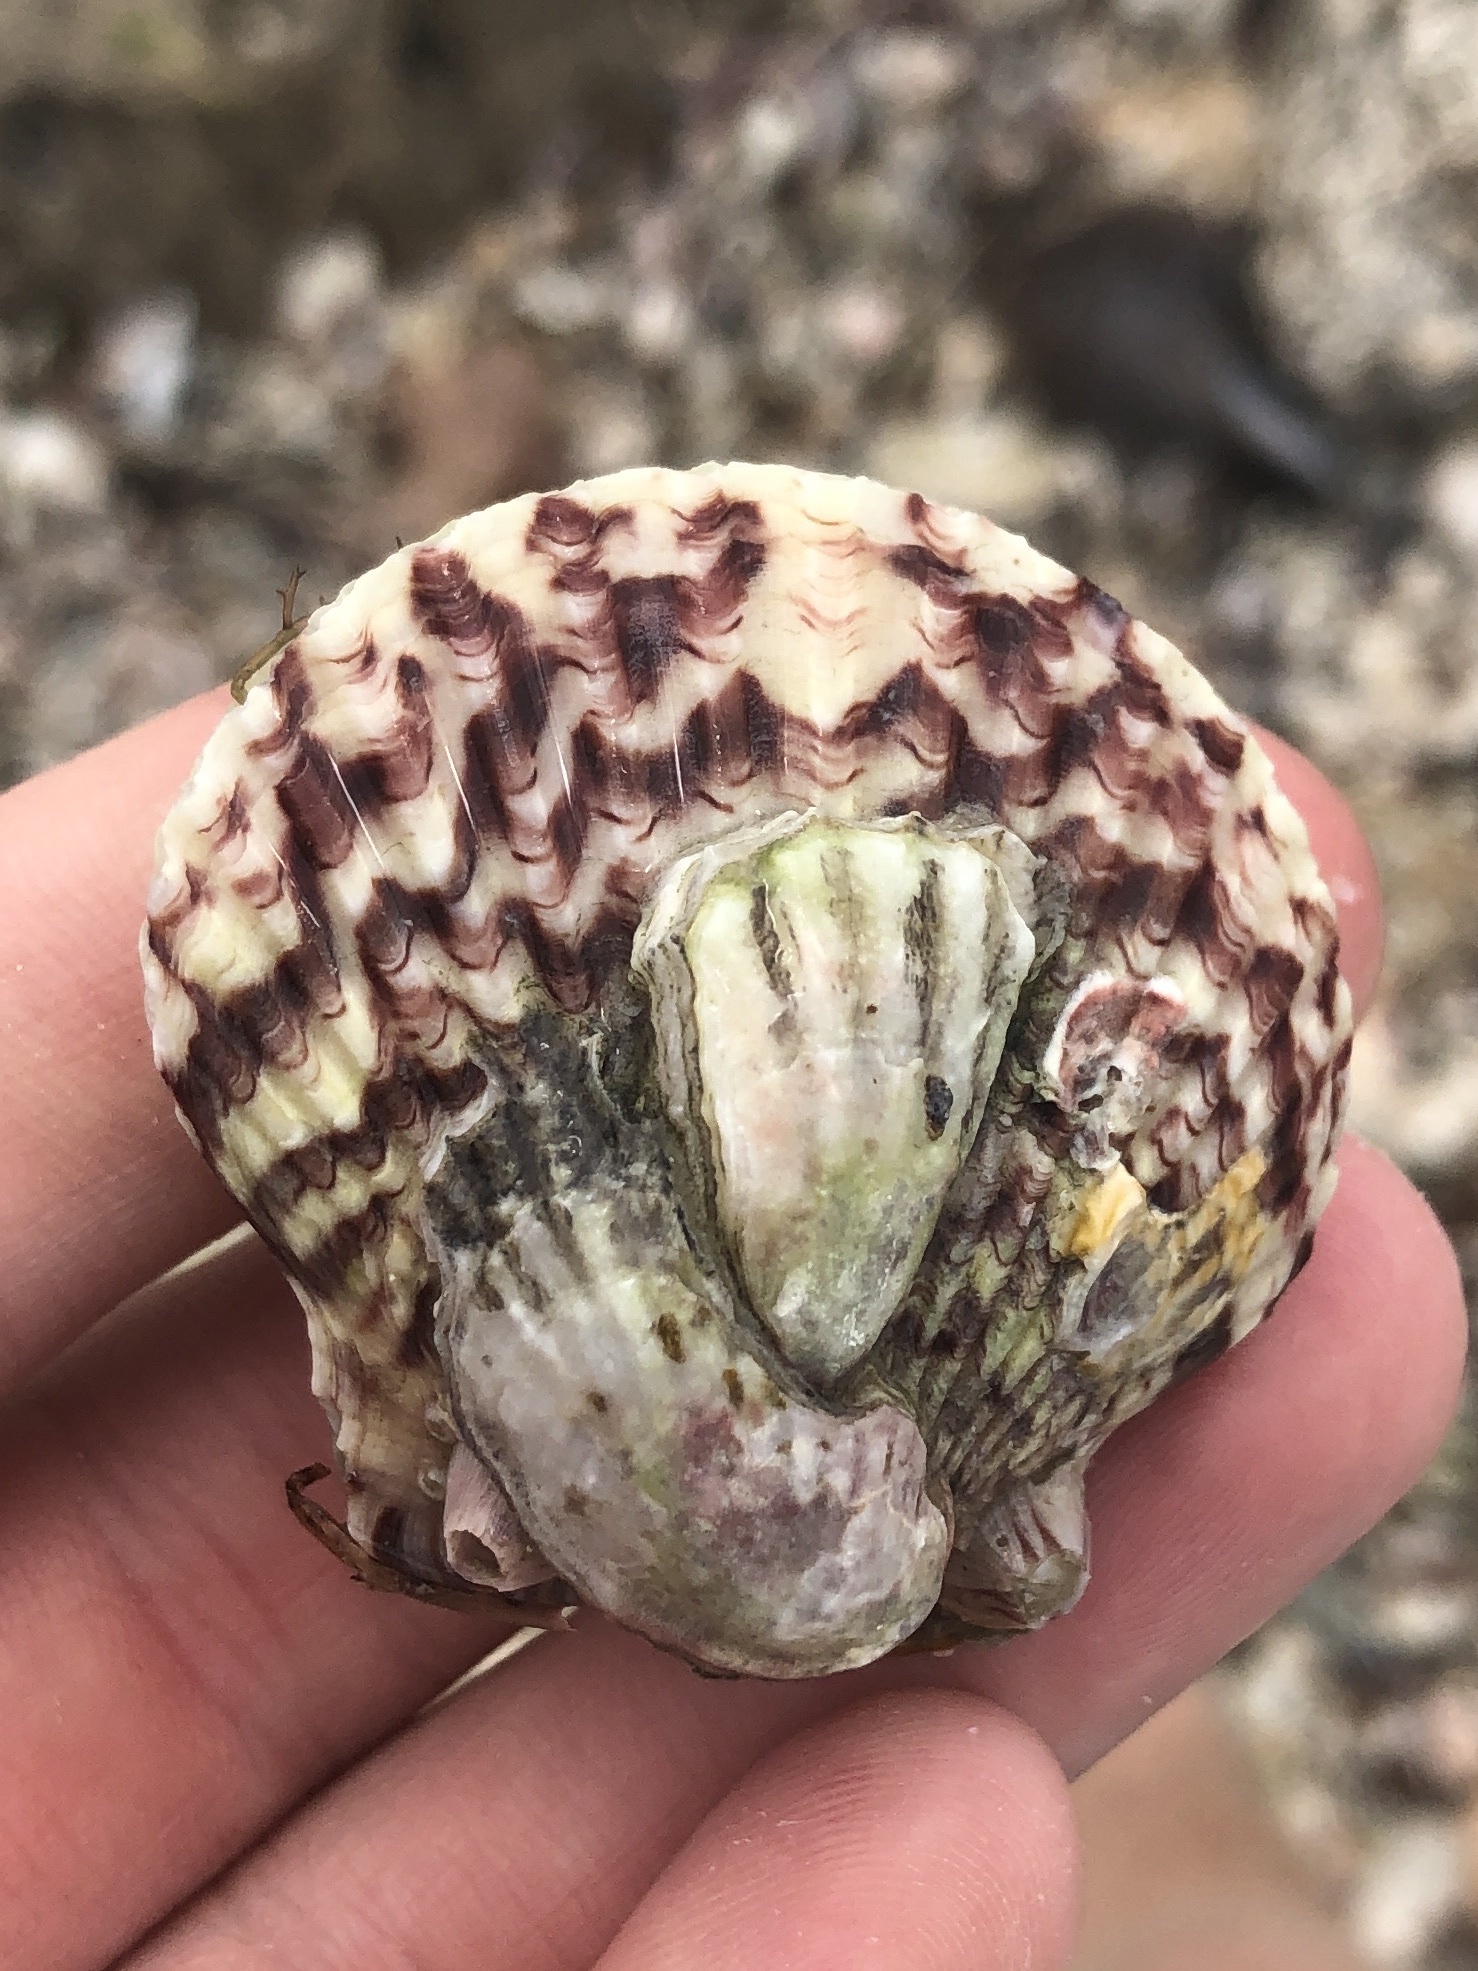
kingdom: Animalia
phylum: Mollusca
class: Bivalvia
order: Pectinida
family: Pectinidae
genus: Argopecten
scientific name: Argopecten gibbus
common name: Atlantic calico scallop
